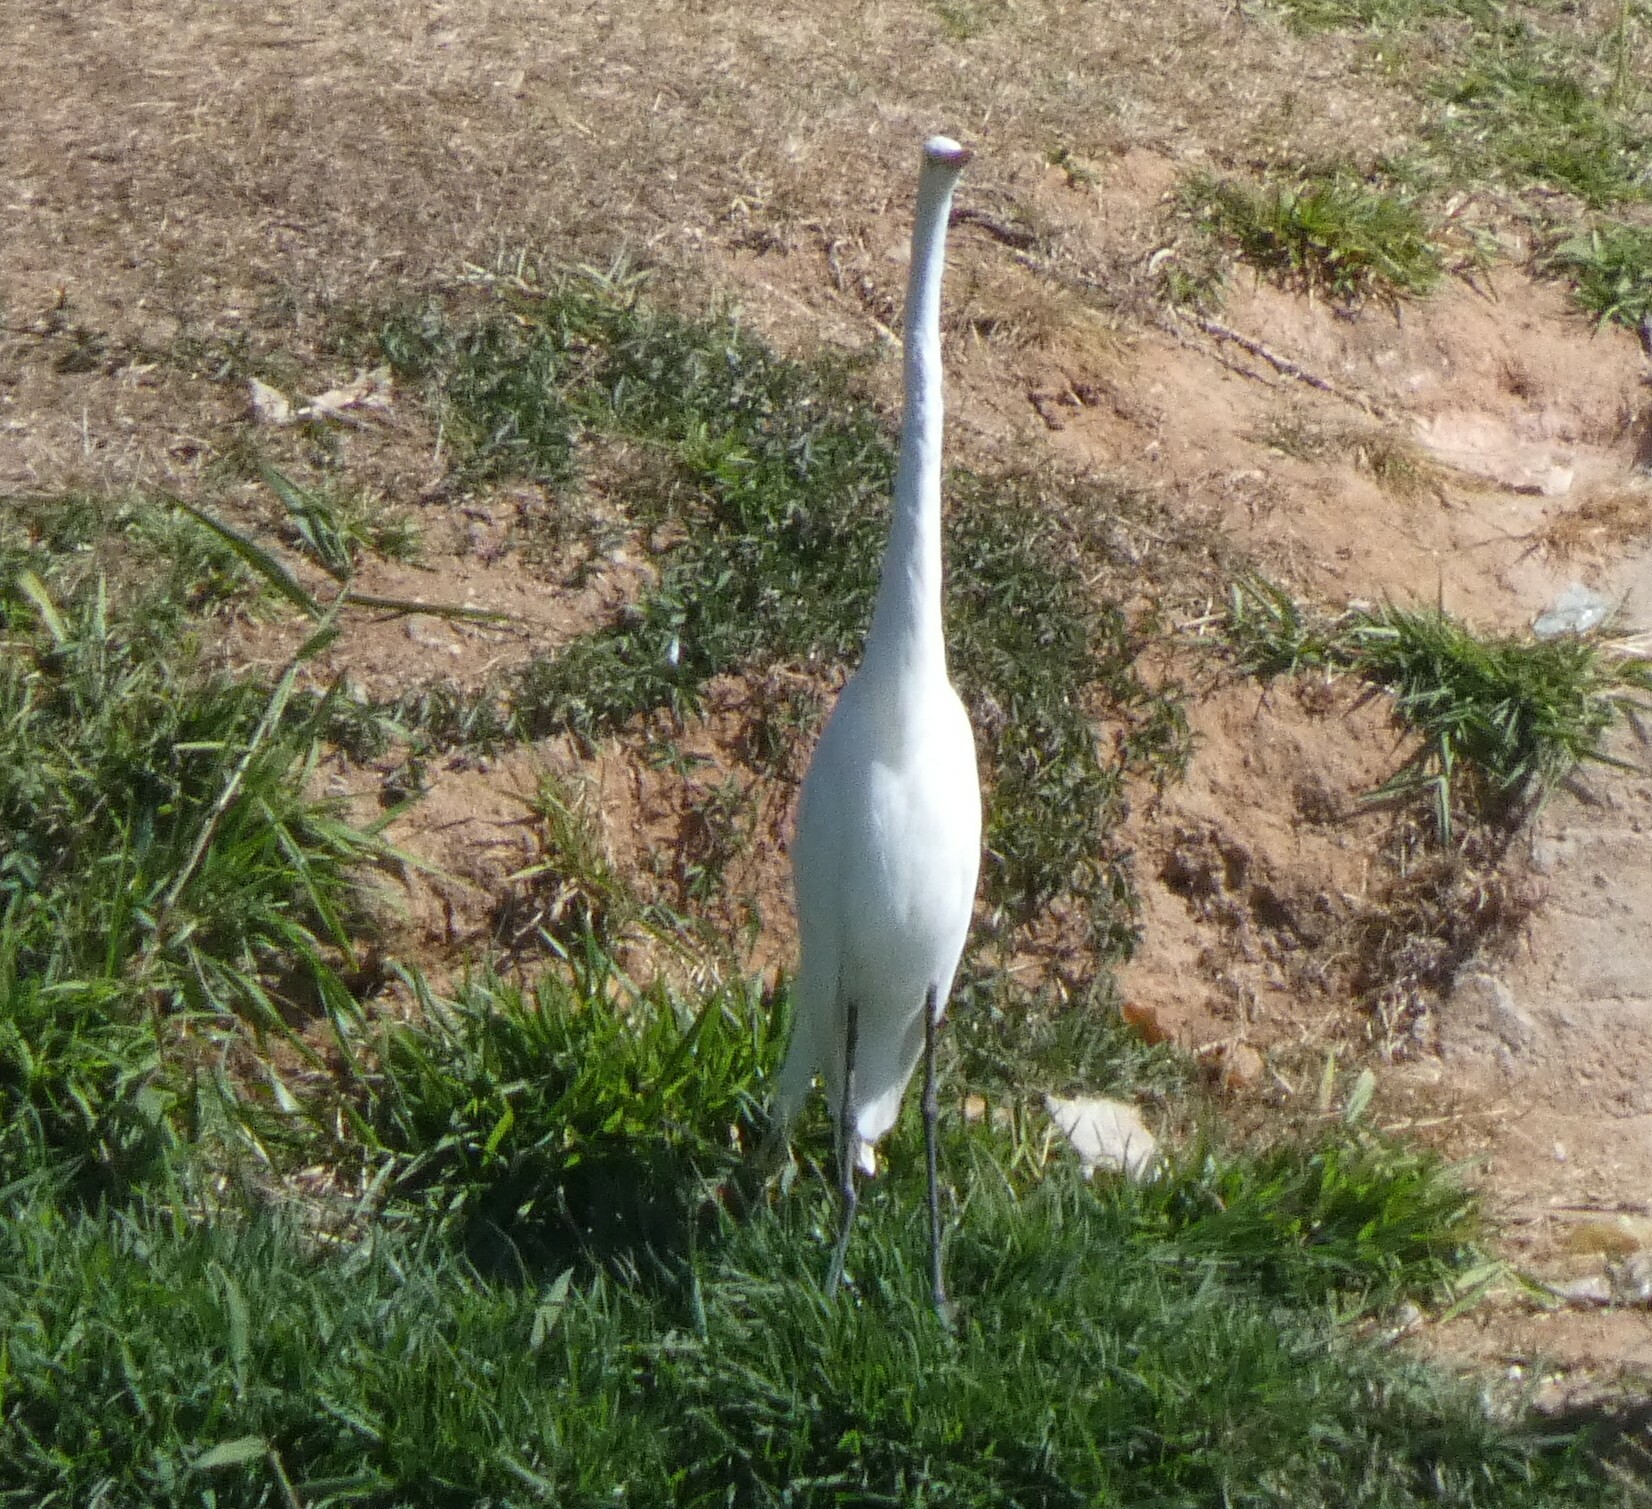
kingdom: Animalia
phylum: Chordata
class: Aves
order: Pelecaniformes
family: Ardeidae
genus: Ardea
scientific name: Ardea alba
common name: Great egret
